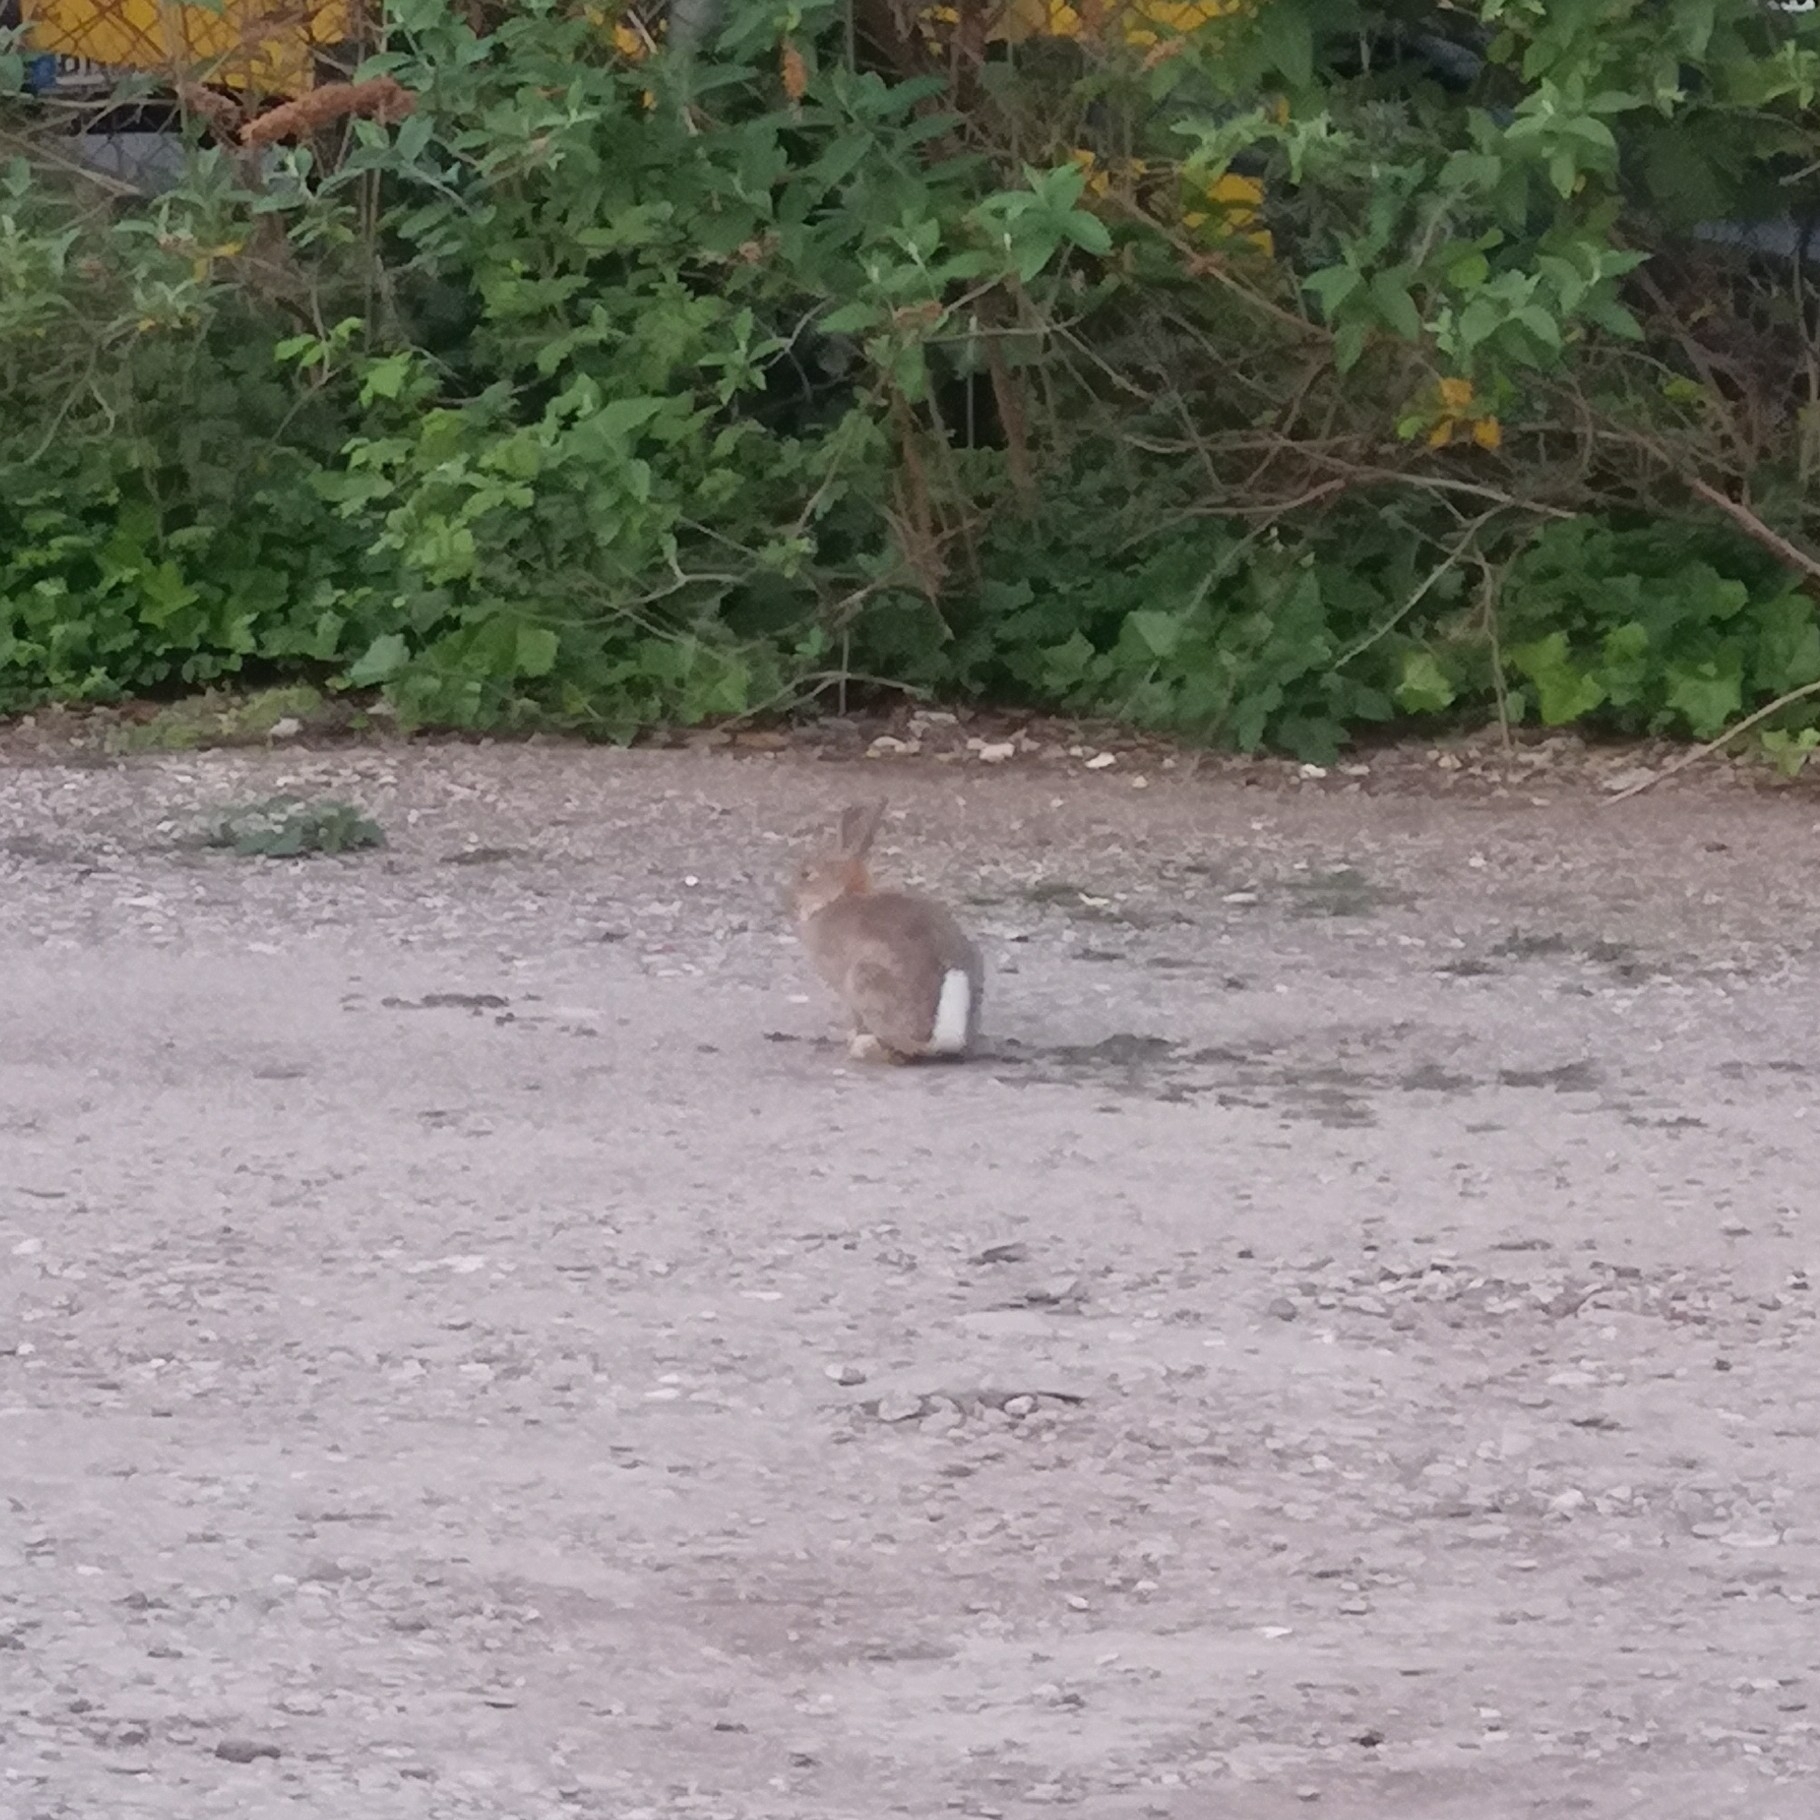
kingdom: Animalia
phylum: Chordata
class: Mammalia
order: Lagomorpha
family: Leporidae
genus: Oryctolagus
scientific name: Oryctolagus cuniculus
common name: European rabbit
